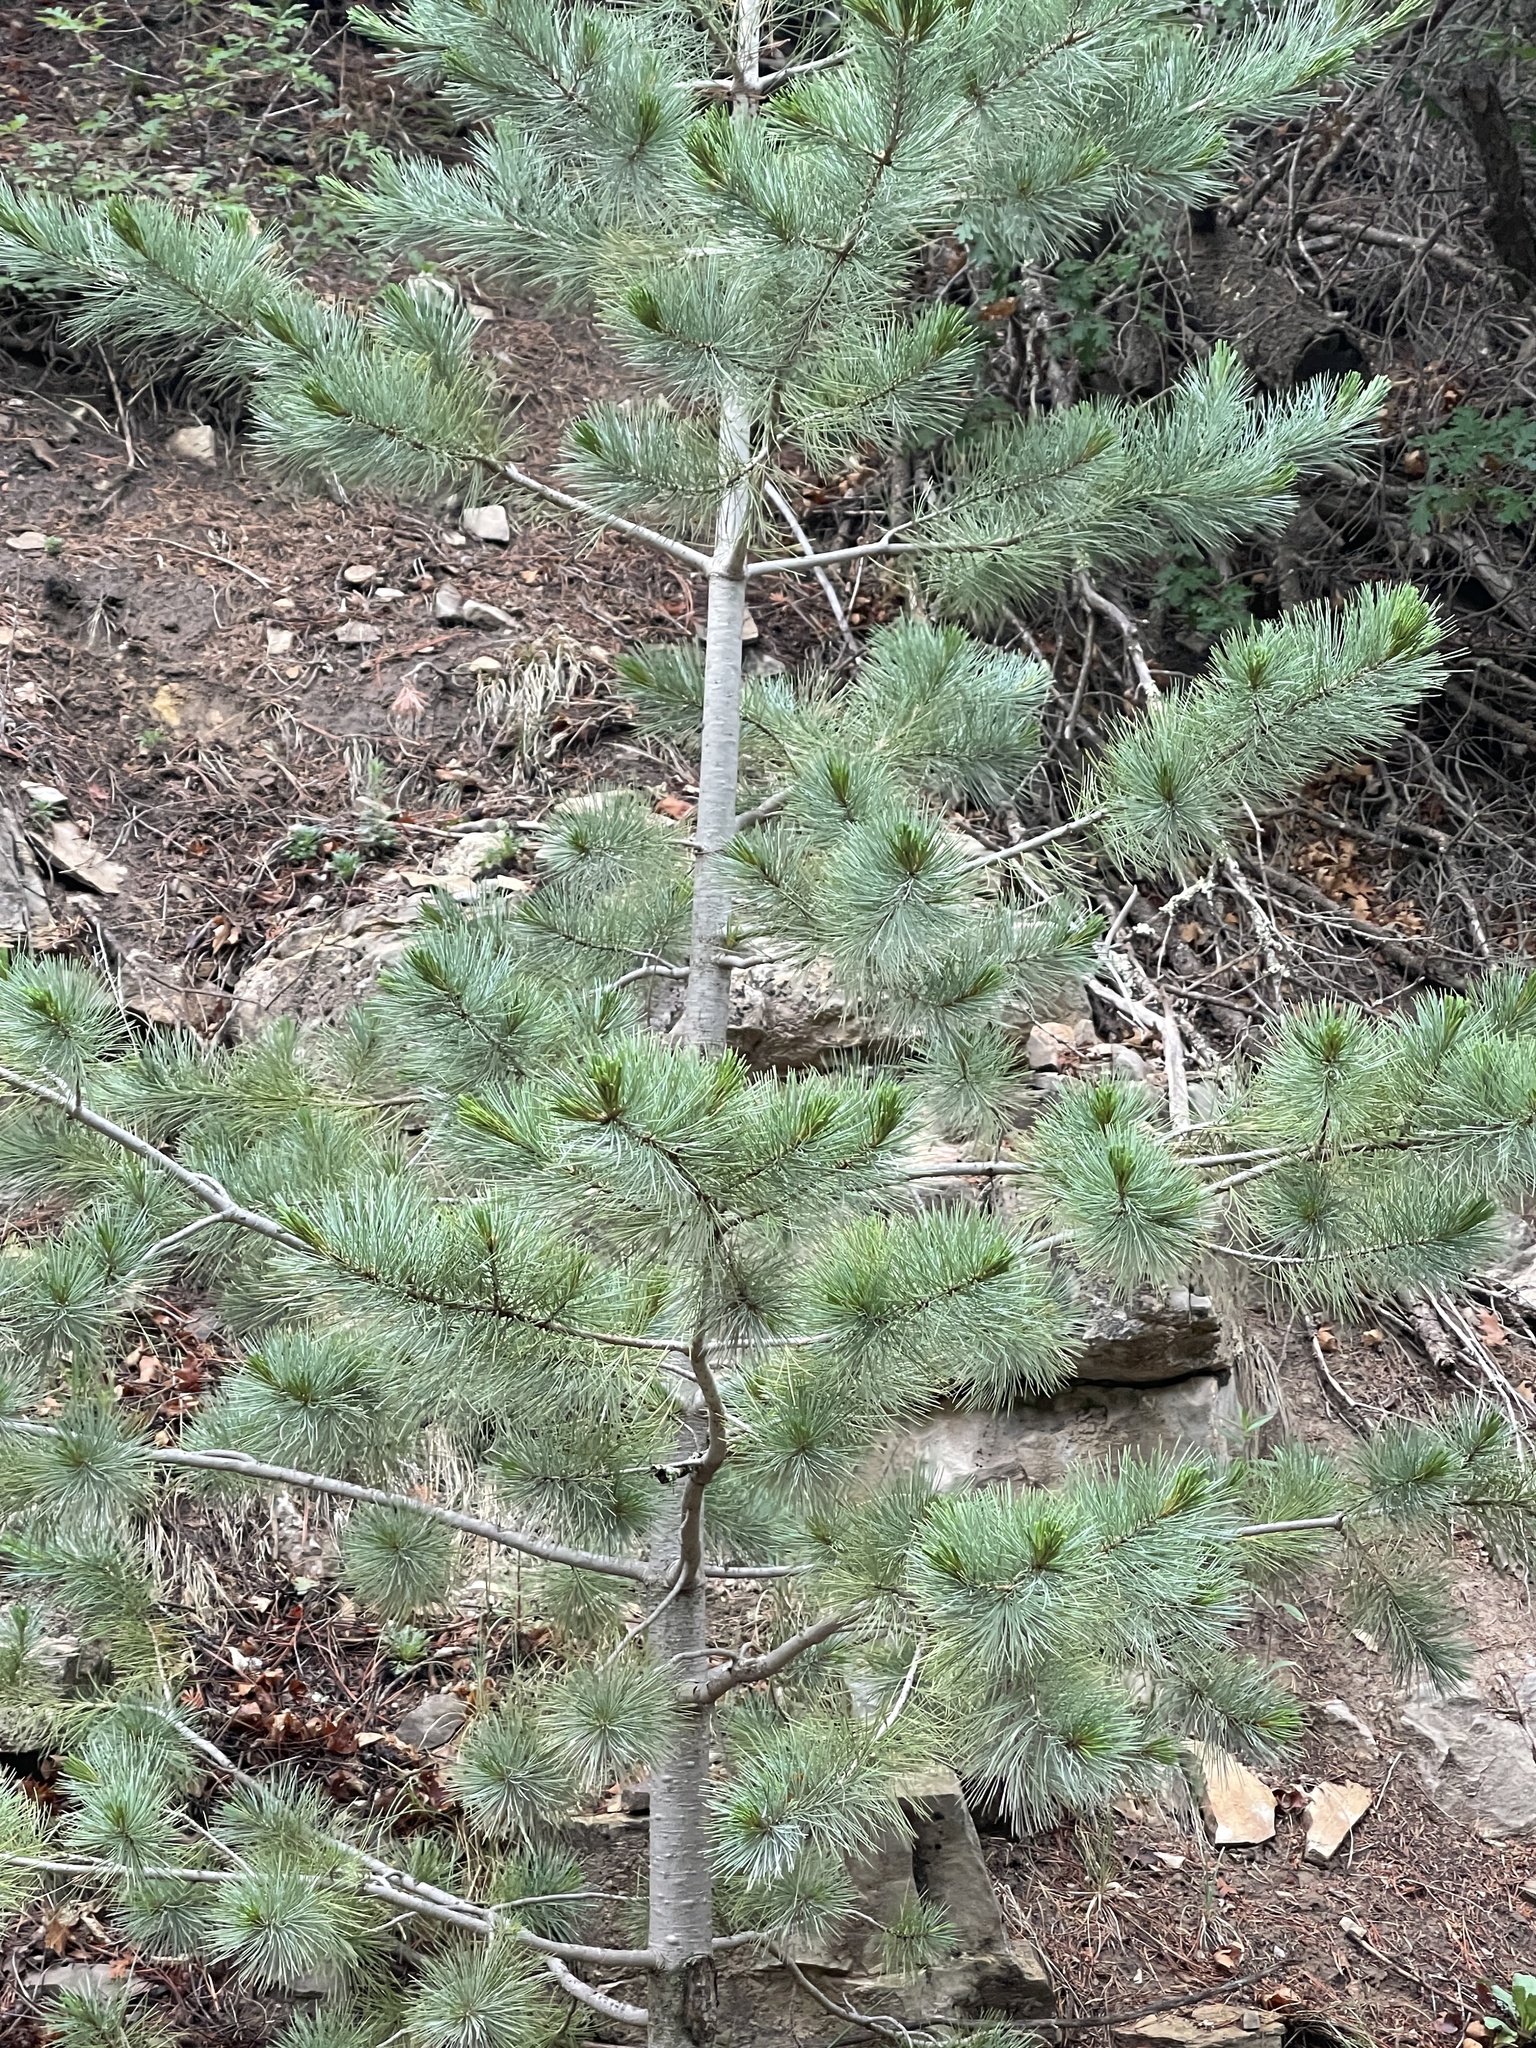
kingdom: Plantae
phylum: Tracheophyta
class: Pinopsida
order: Pinales
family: Pinaceae
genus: Pinus
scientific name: Pinus strobiformis
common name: Southwestern white pine
